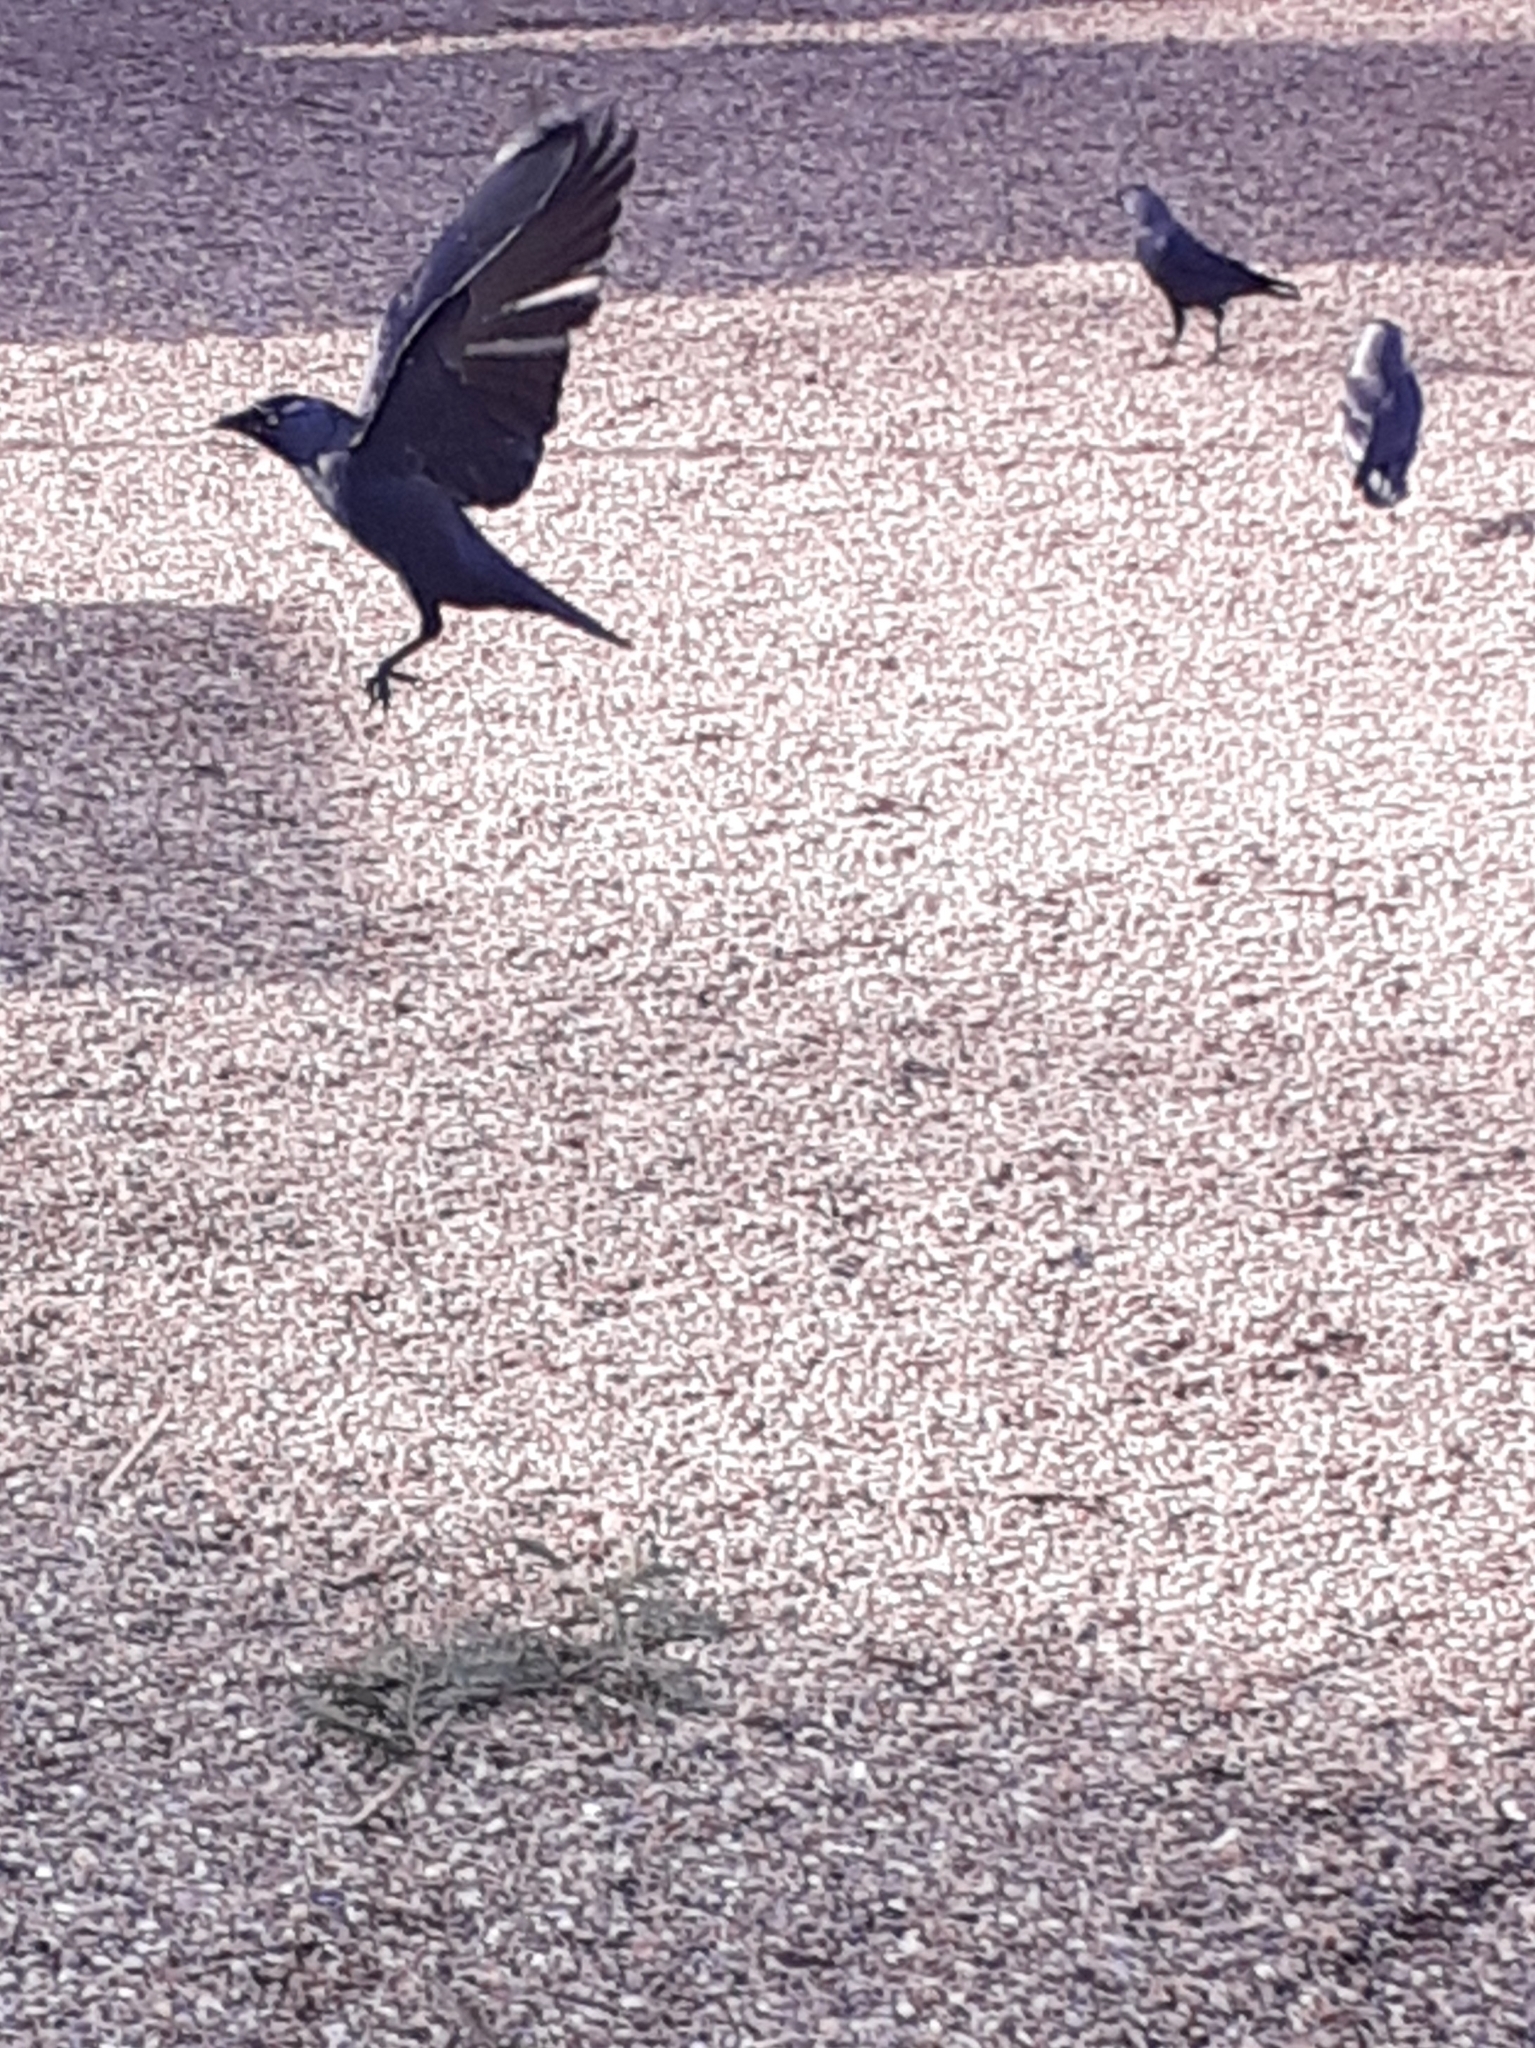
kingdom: Animalia
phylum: Chordata
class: Aves
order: Passeriformes
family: Corvidae
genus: Coloeus
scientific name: Coloeus monedula
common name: Western jackdaw
